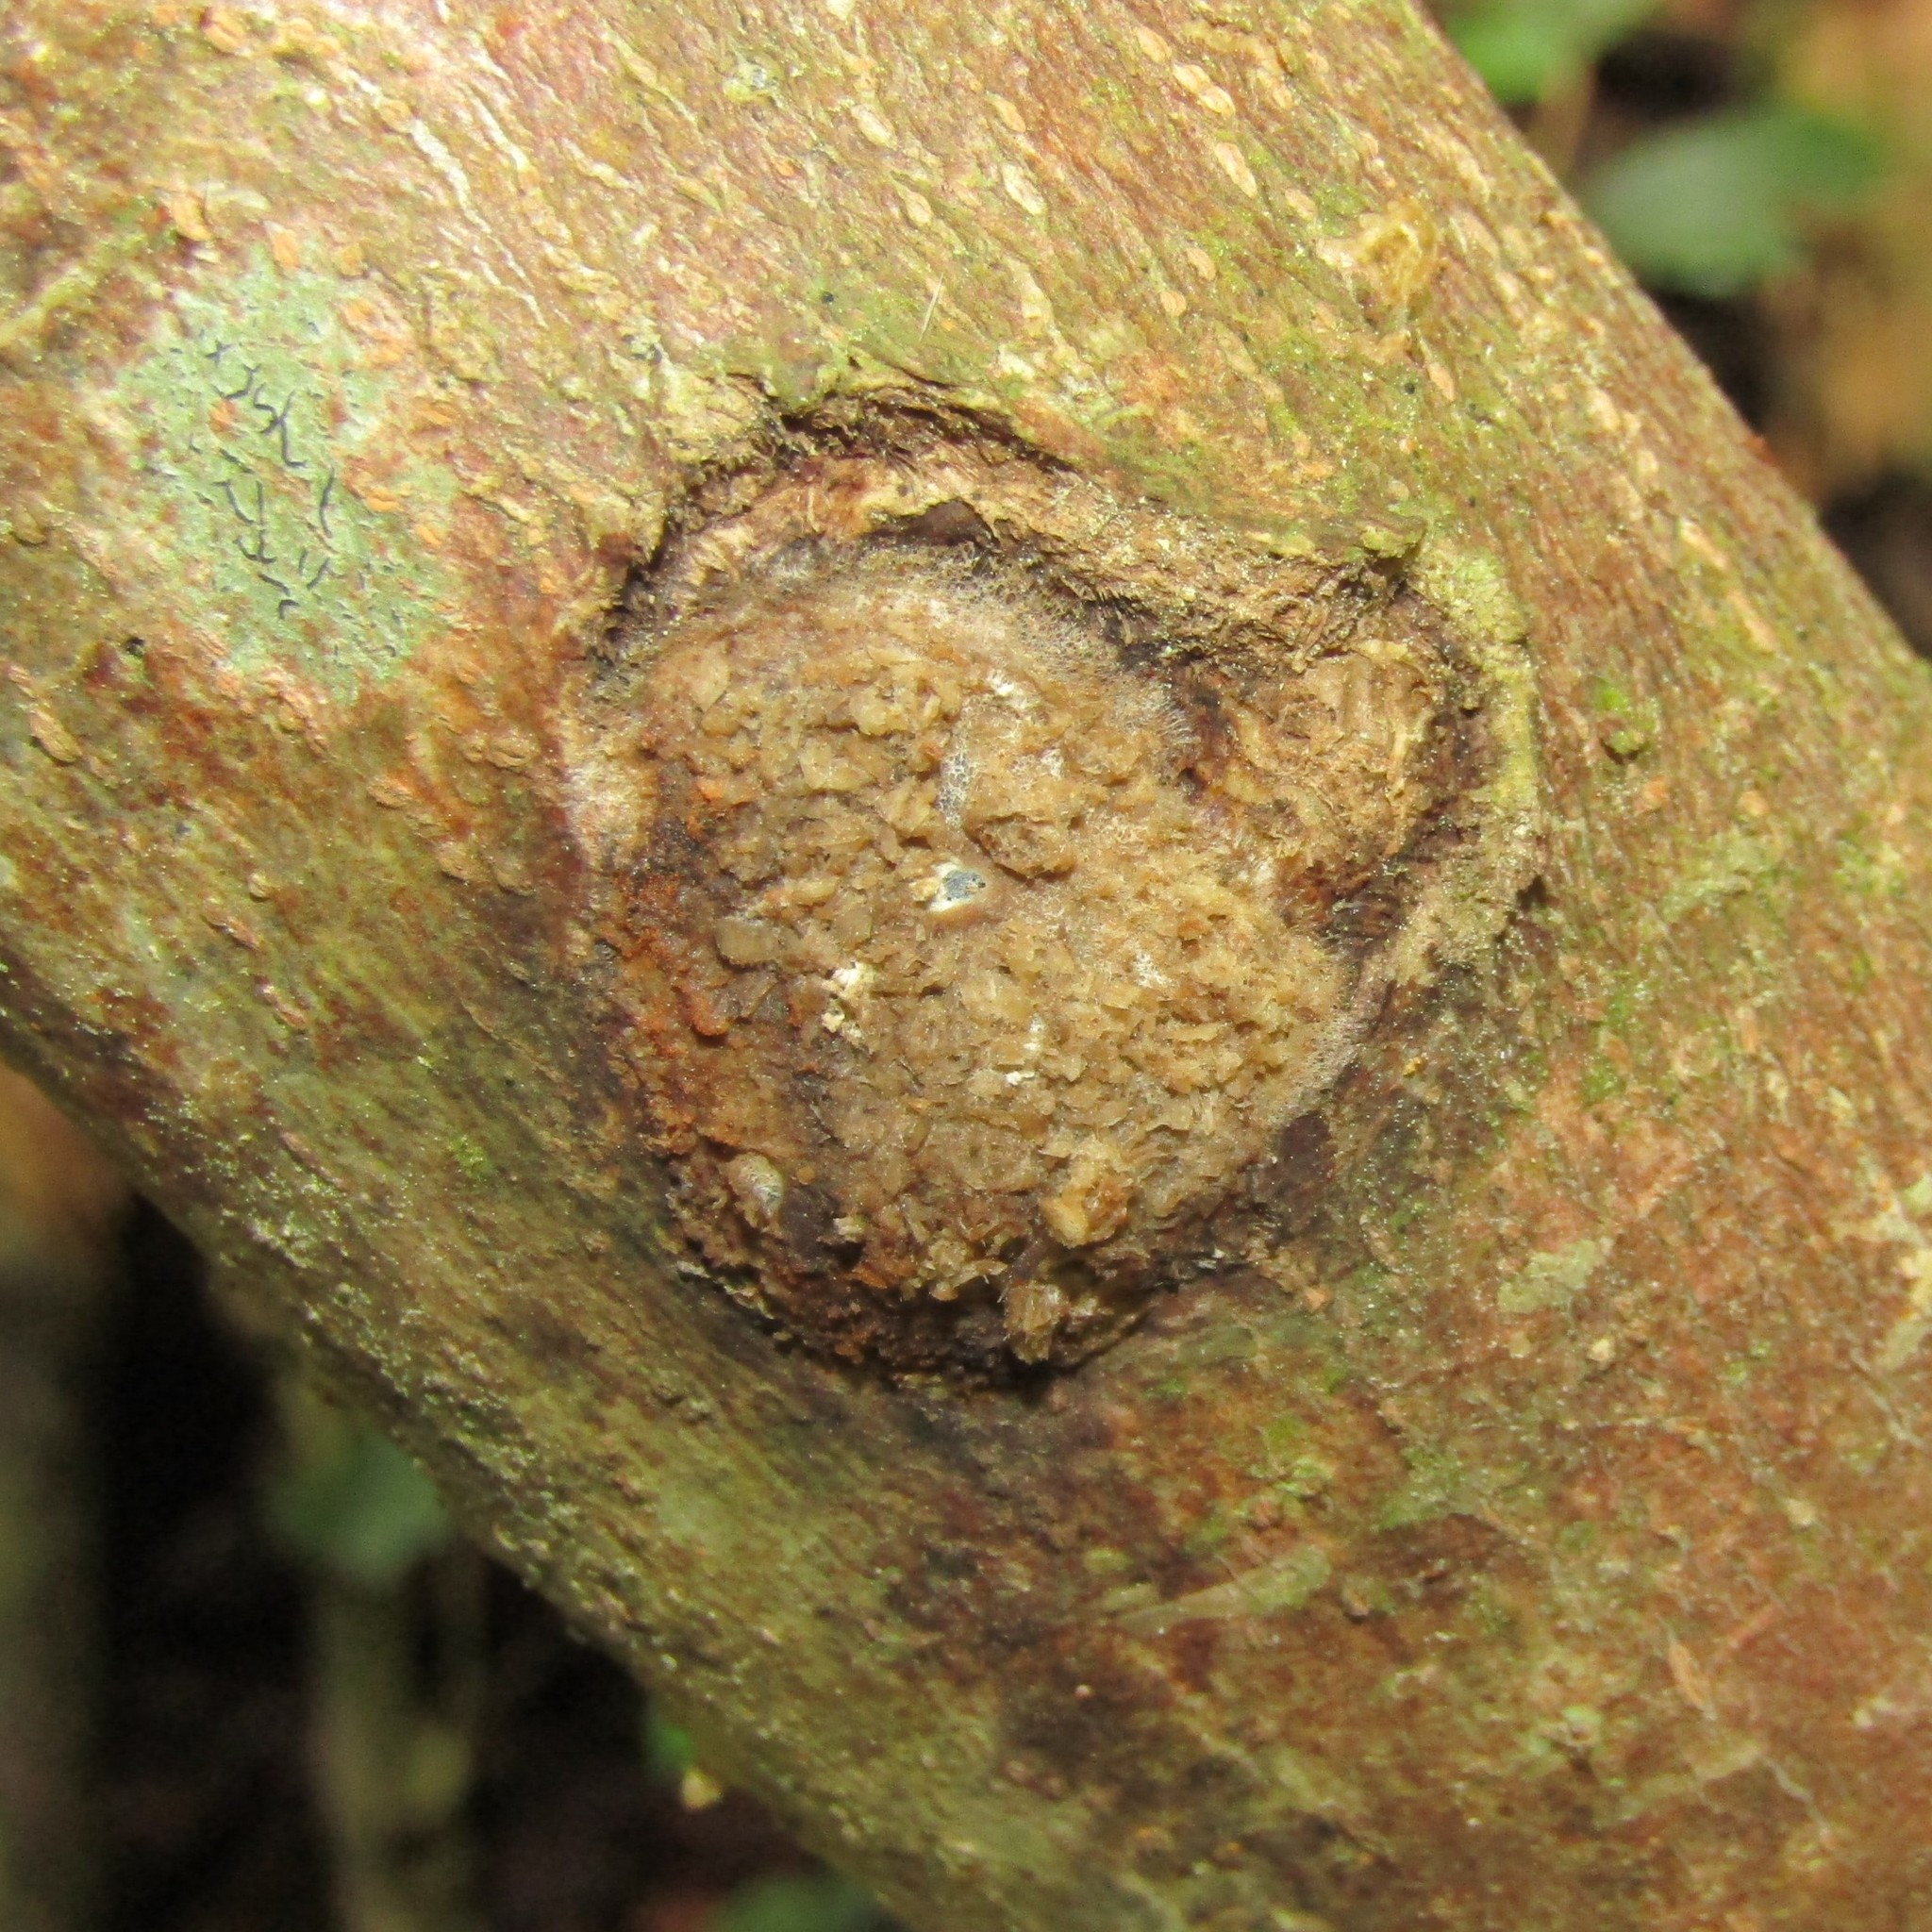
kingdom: Animalia
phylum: Arthropoda
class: Insecta
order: Lepidoptera
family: Hepialidae
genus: Aenetus
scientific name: Aenetus virescens
